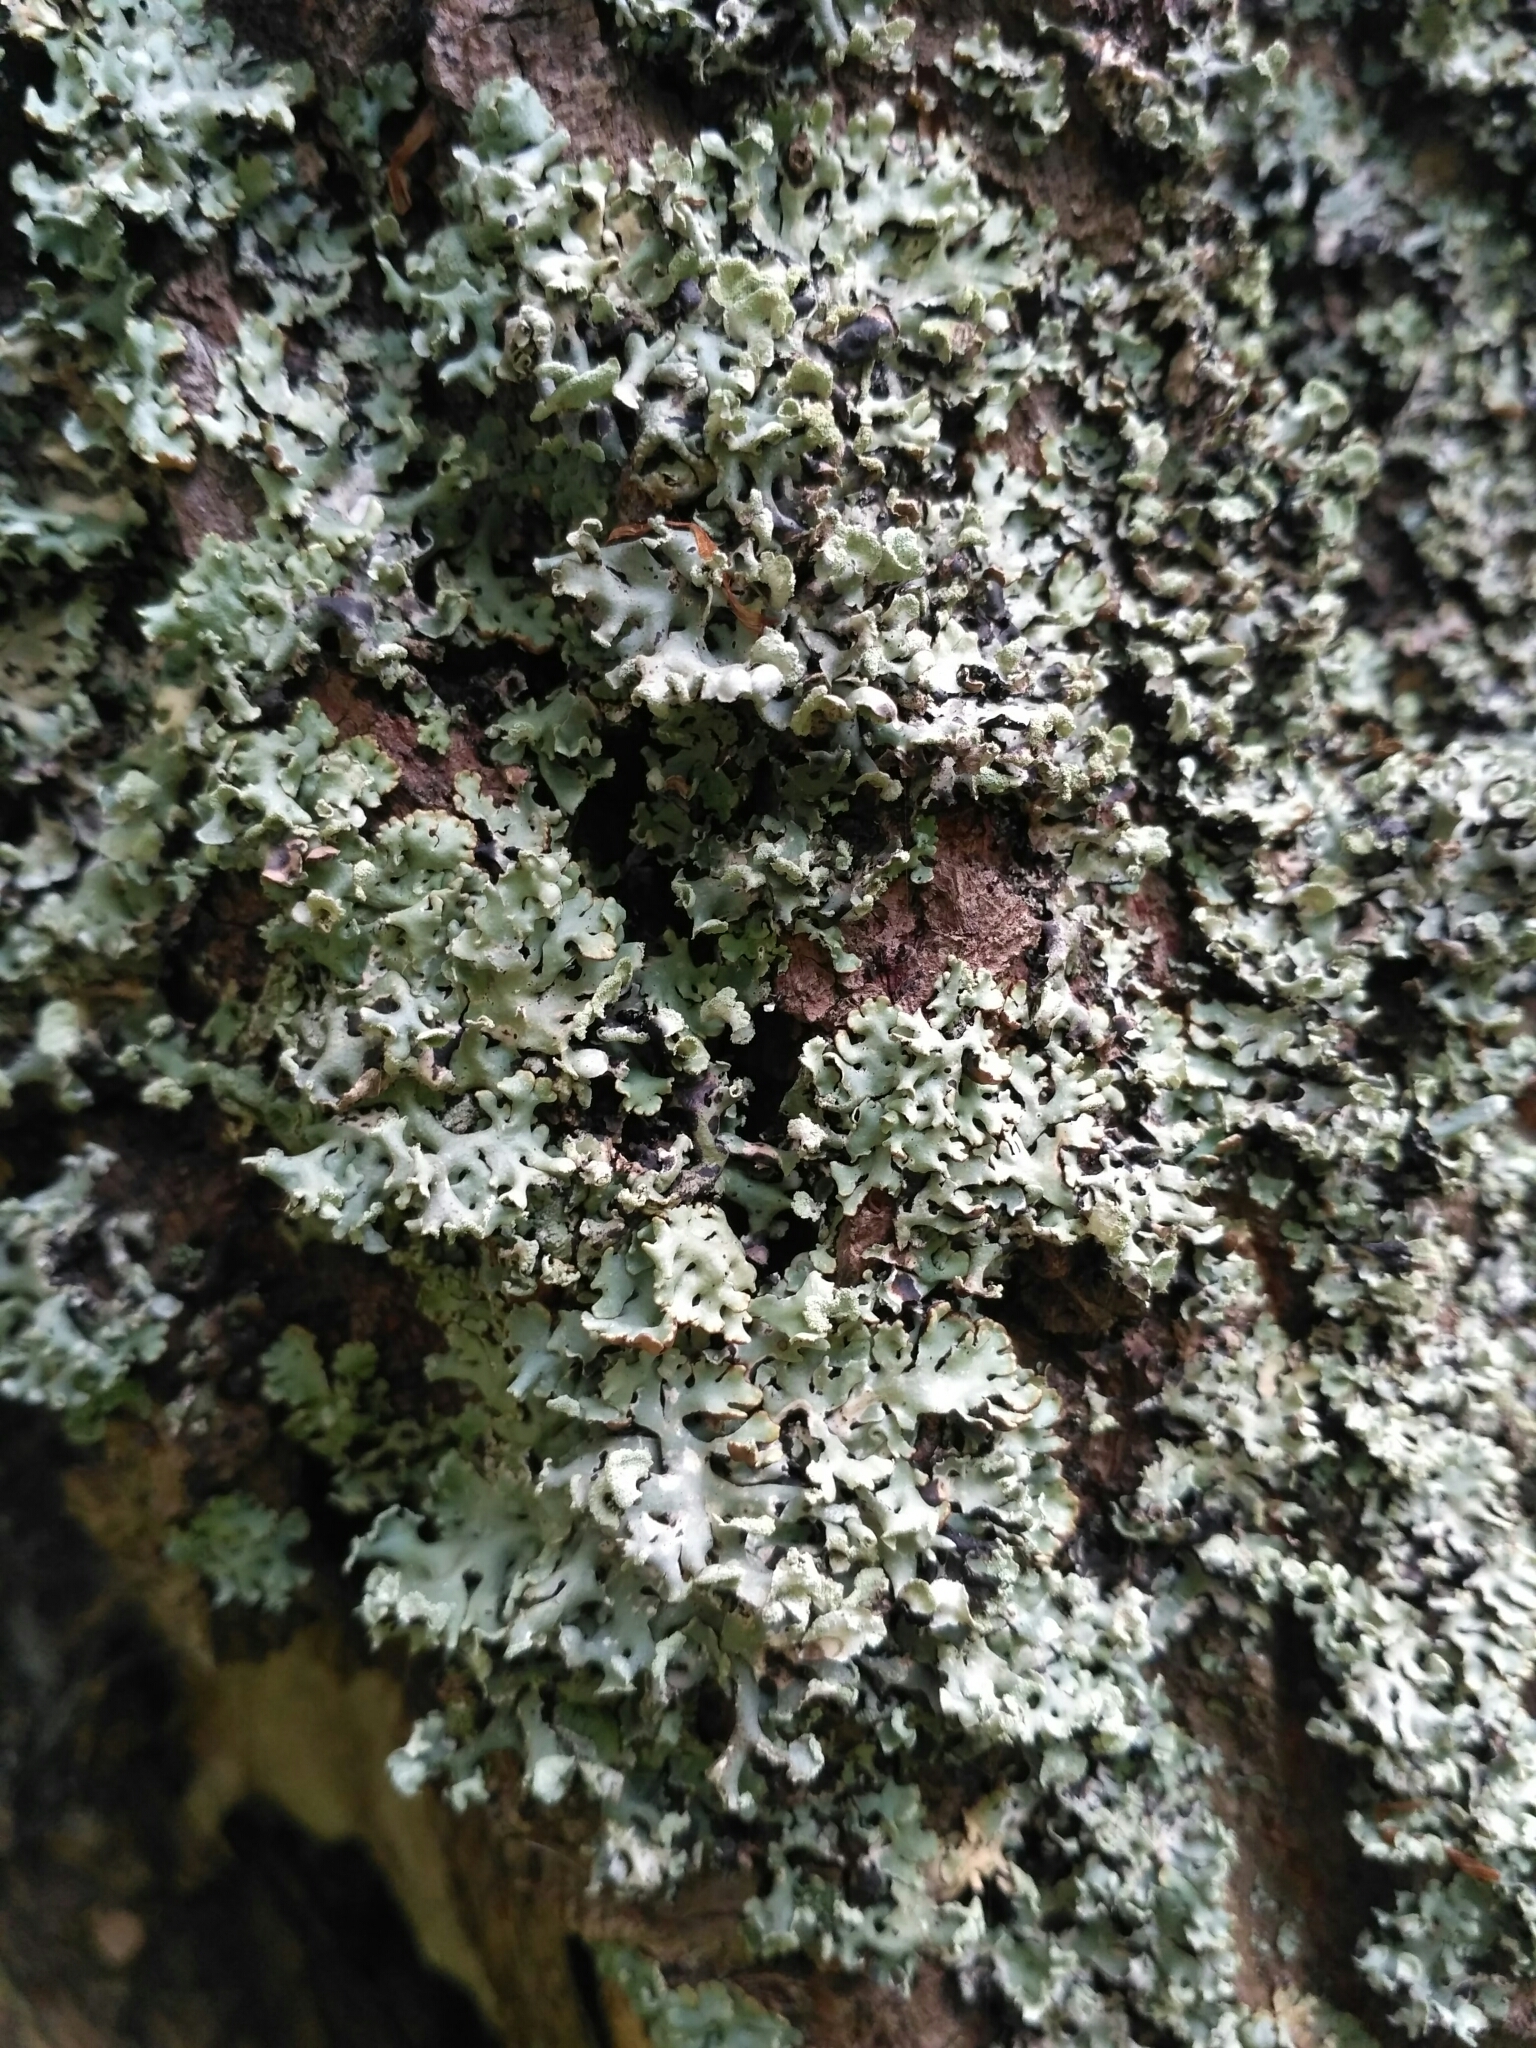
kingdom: Fungi
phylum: Ascomycota
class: Lecanoromycetes
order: Lecanorales
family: Parmeliaceae
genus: Hypogymnia
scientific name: Hypogymnia physodes
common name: Dark crottle
